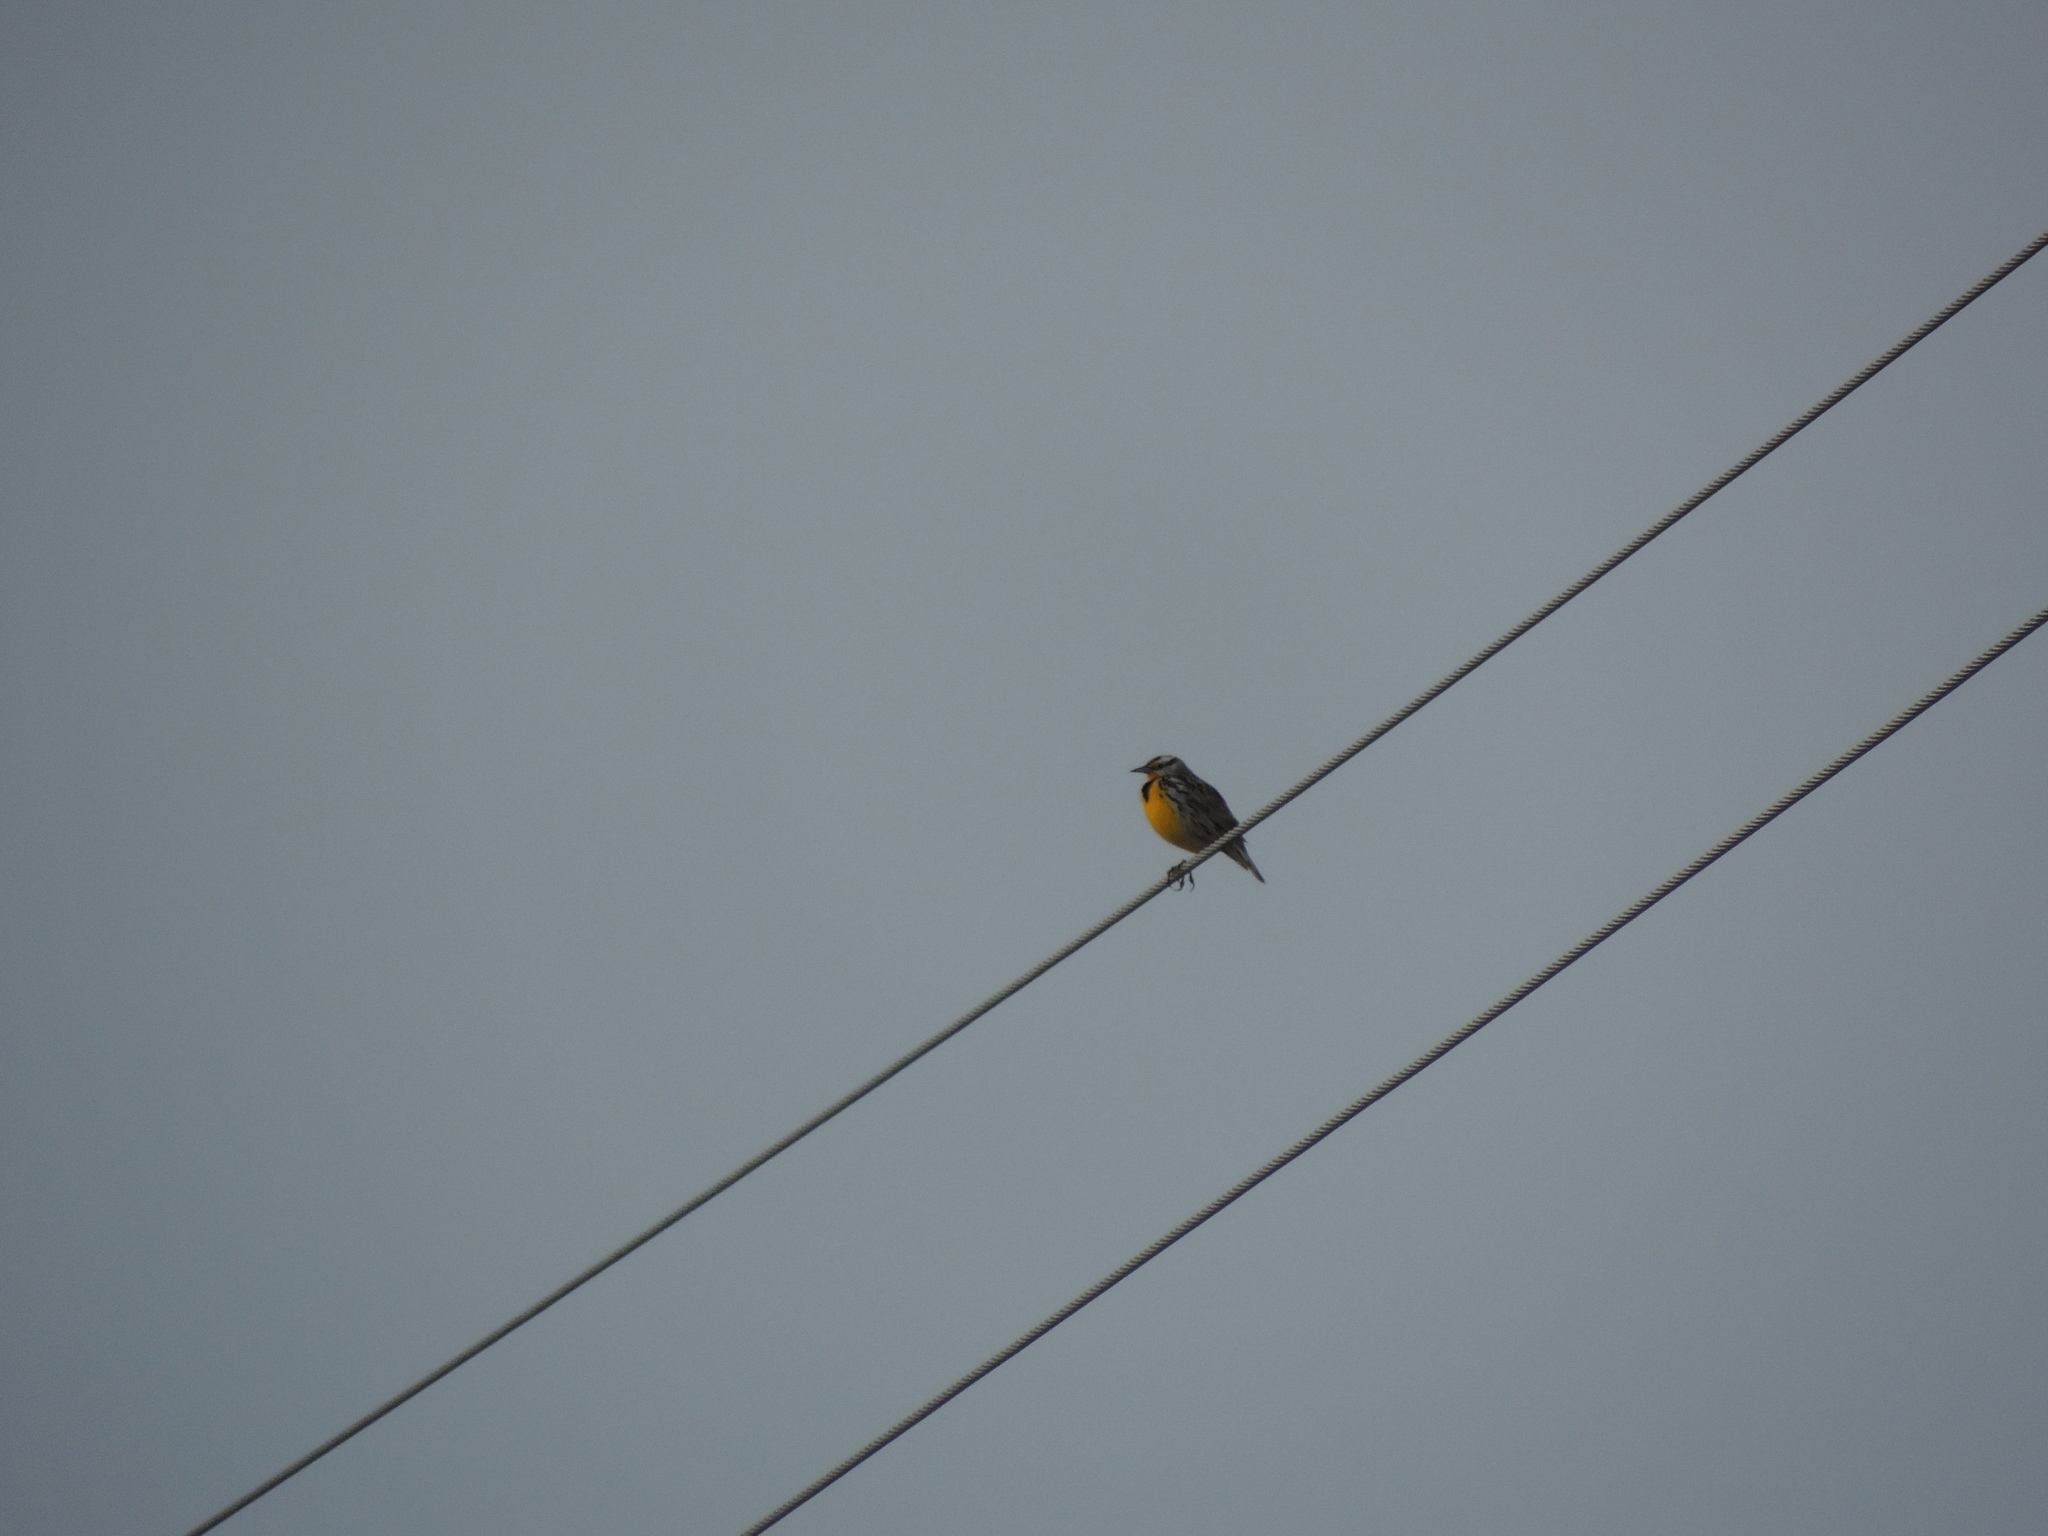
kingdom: Animalia
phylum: Chordata
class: Aves
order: Passeriformes
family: Icteridae
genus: Sturnella
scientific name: Sturnella magna
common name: Eastern meadowlark
